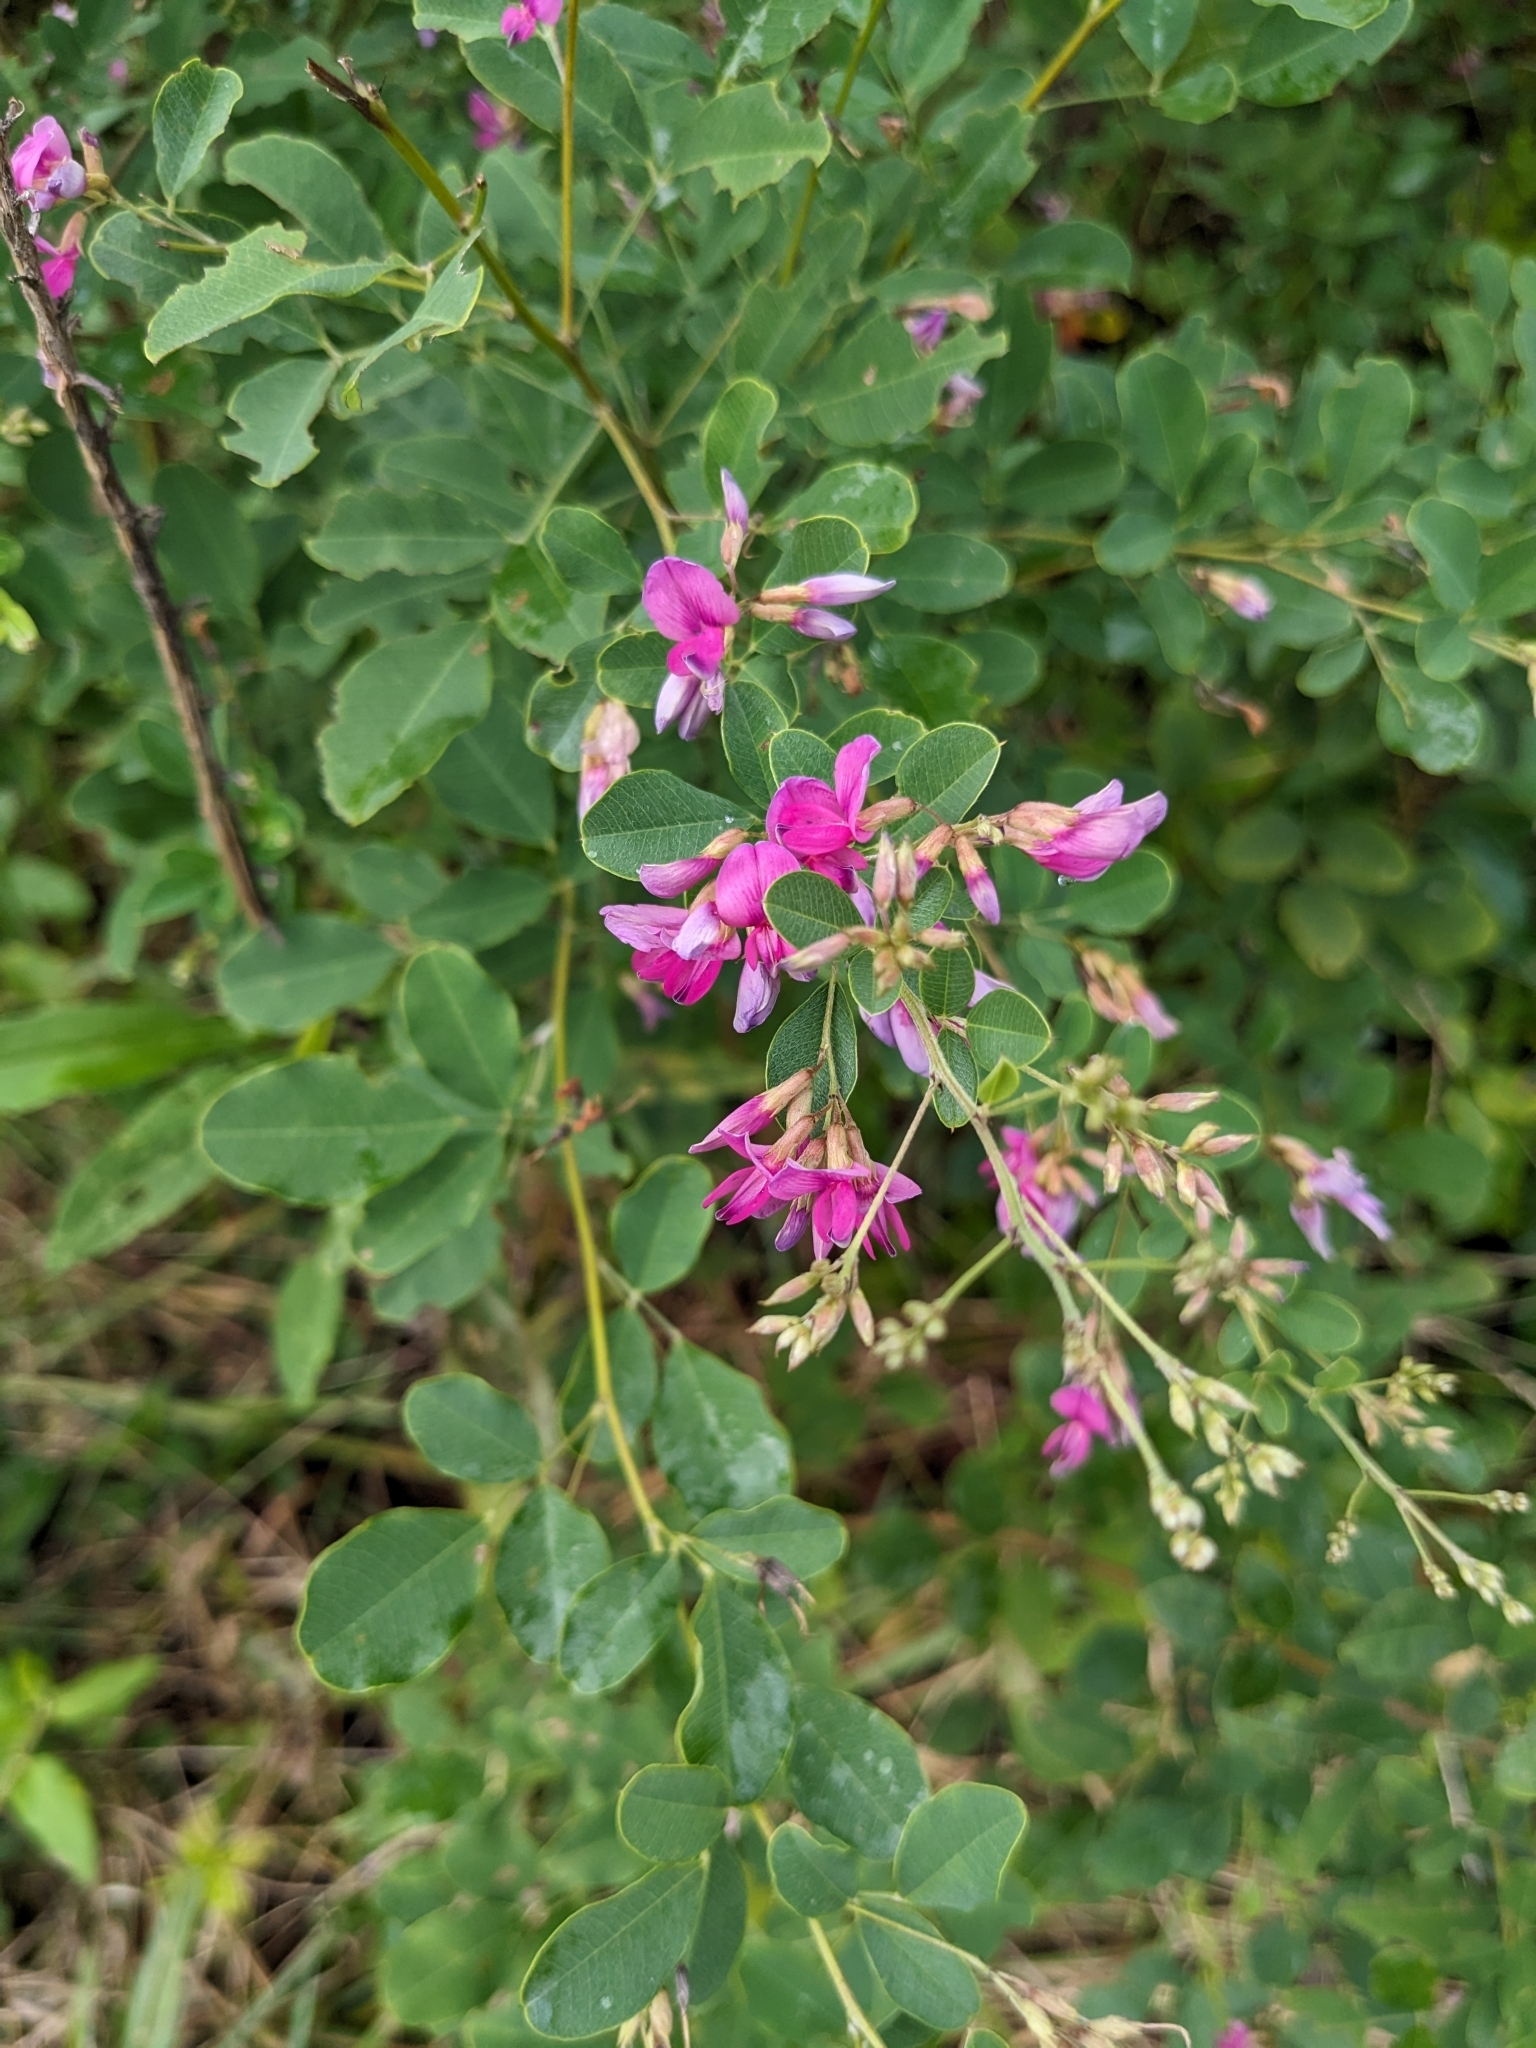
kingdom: Plantae
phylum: Tracheophyta
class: Magnoliopsida
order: Fabales
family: Fabaceae
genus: Lespedeza
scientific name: Lespedeza bicolor
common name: Shrub lespedeza
